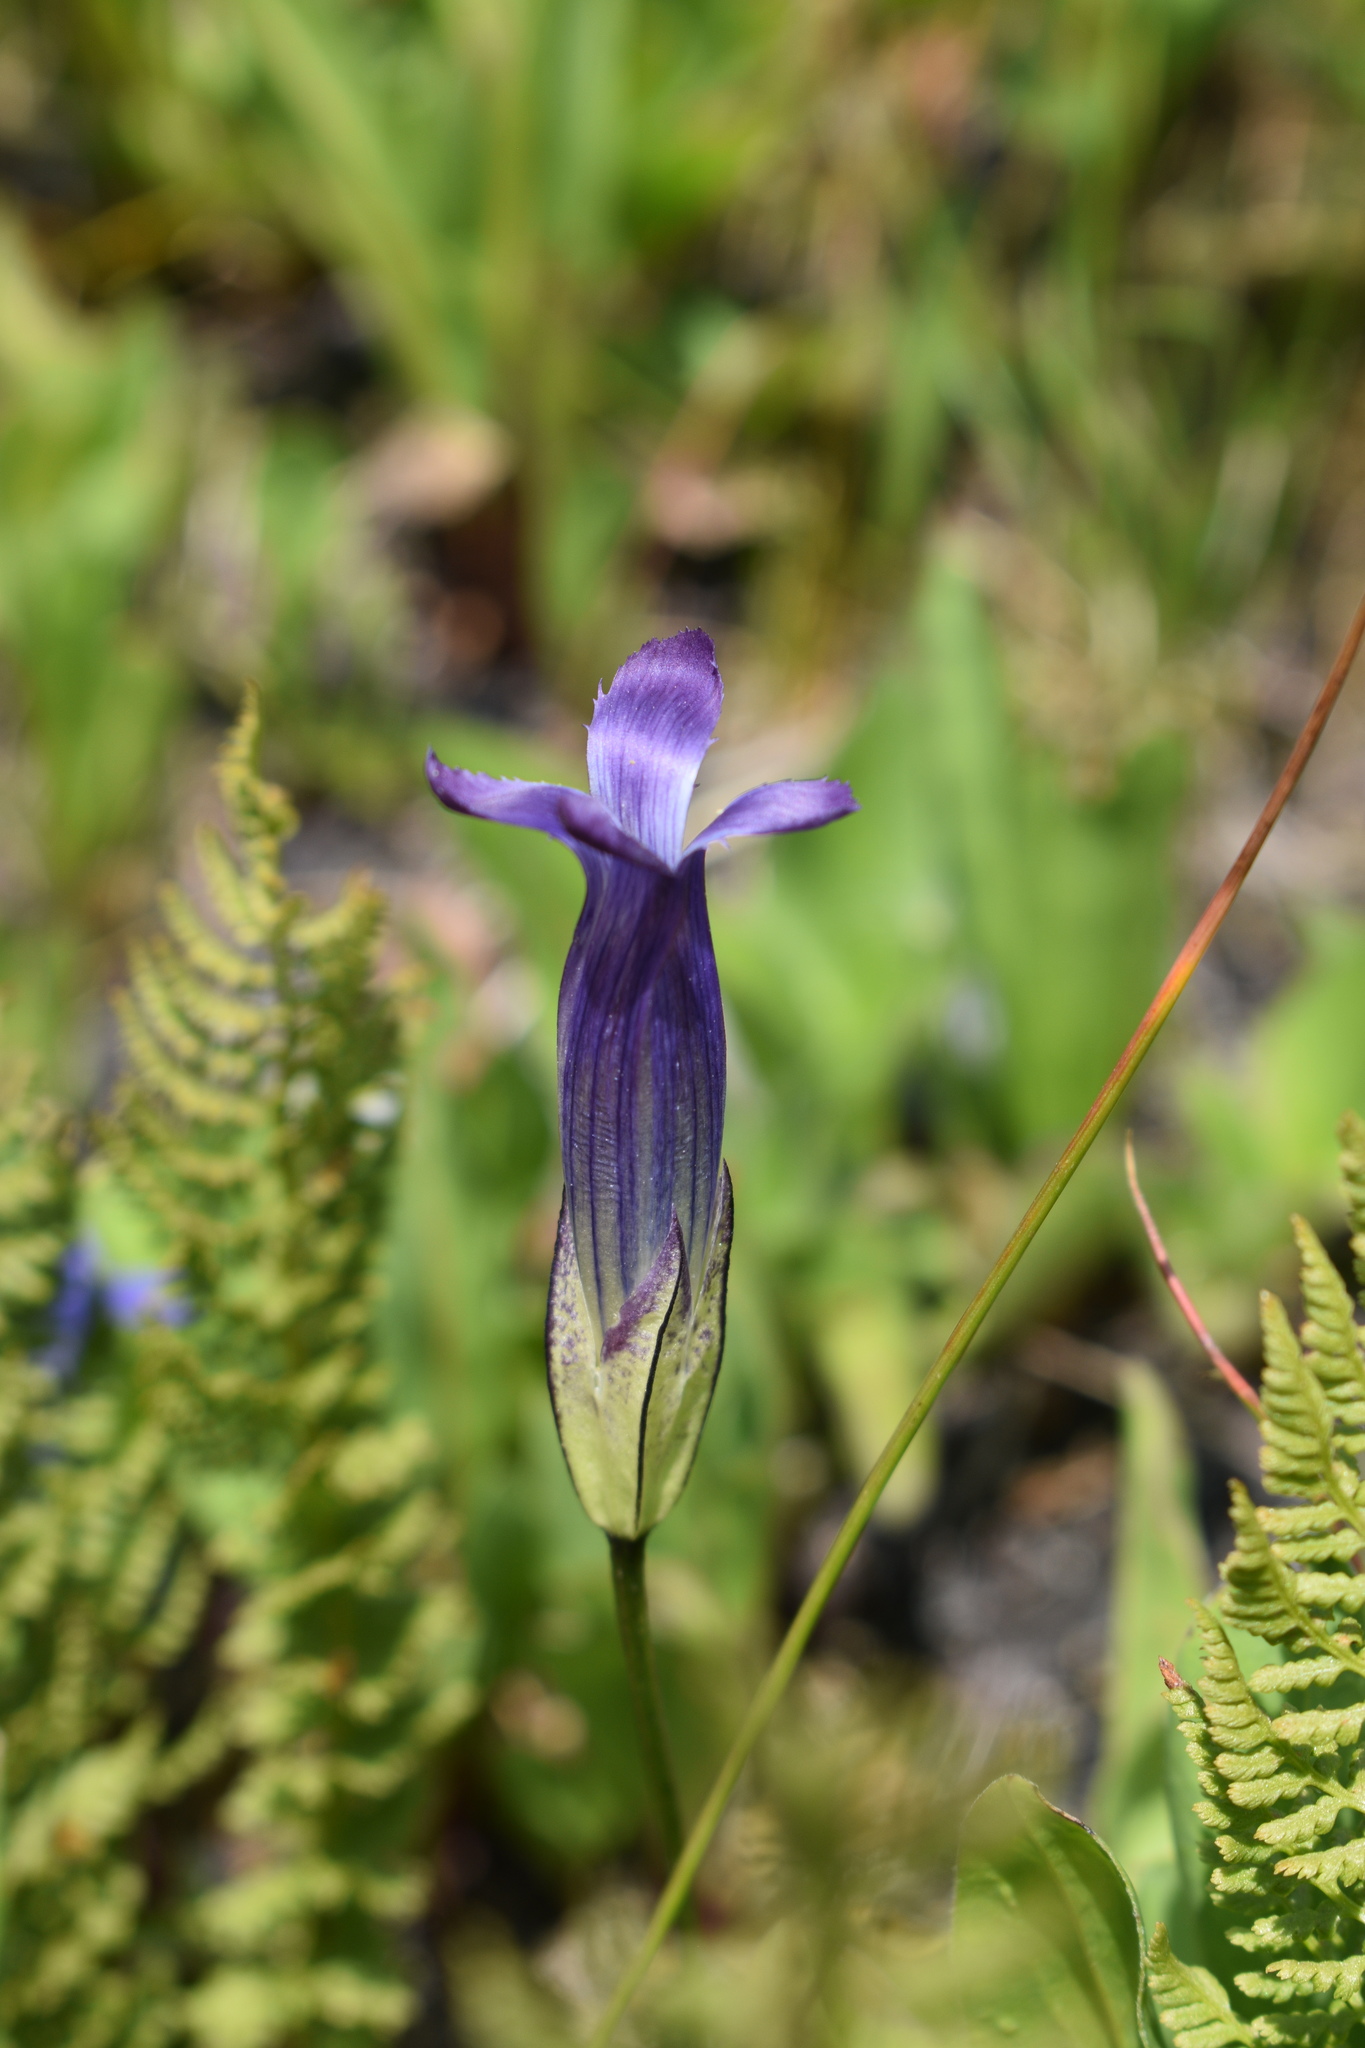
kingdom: Plantae
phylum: Tracheophyta
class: Magnoliopsida
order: Gentianales
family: Gentianaceae
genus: Gentianopsis
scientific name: Gentianopsis thermalis
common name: Rocky mountain fringed-gentian
